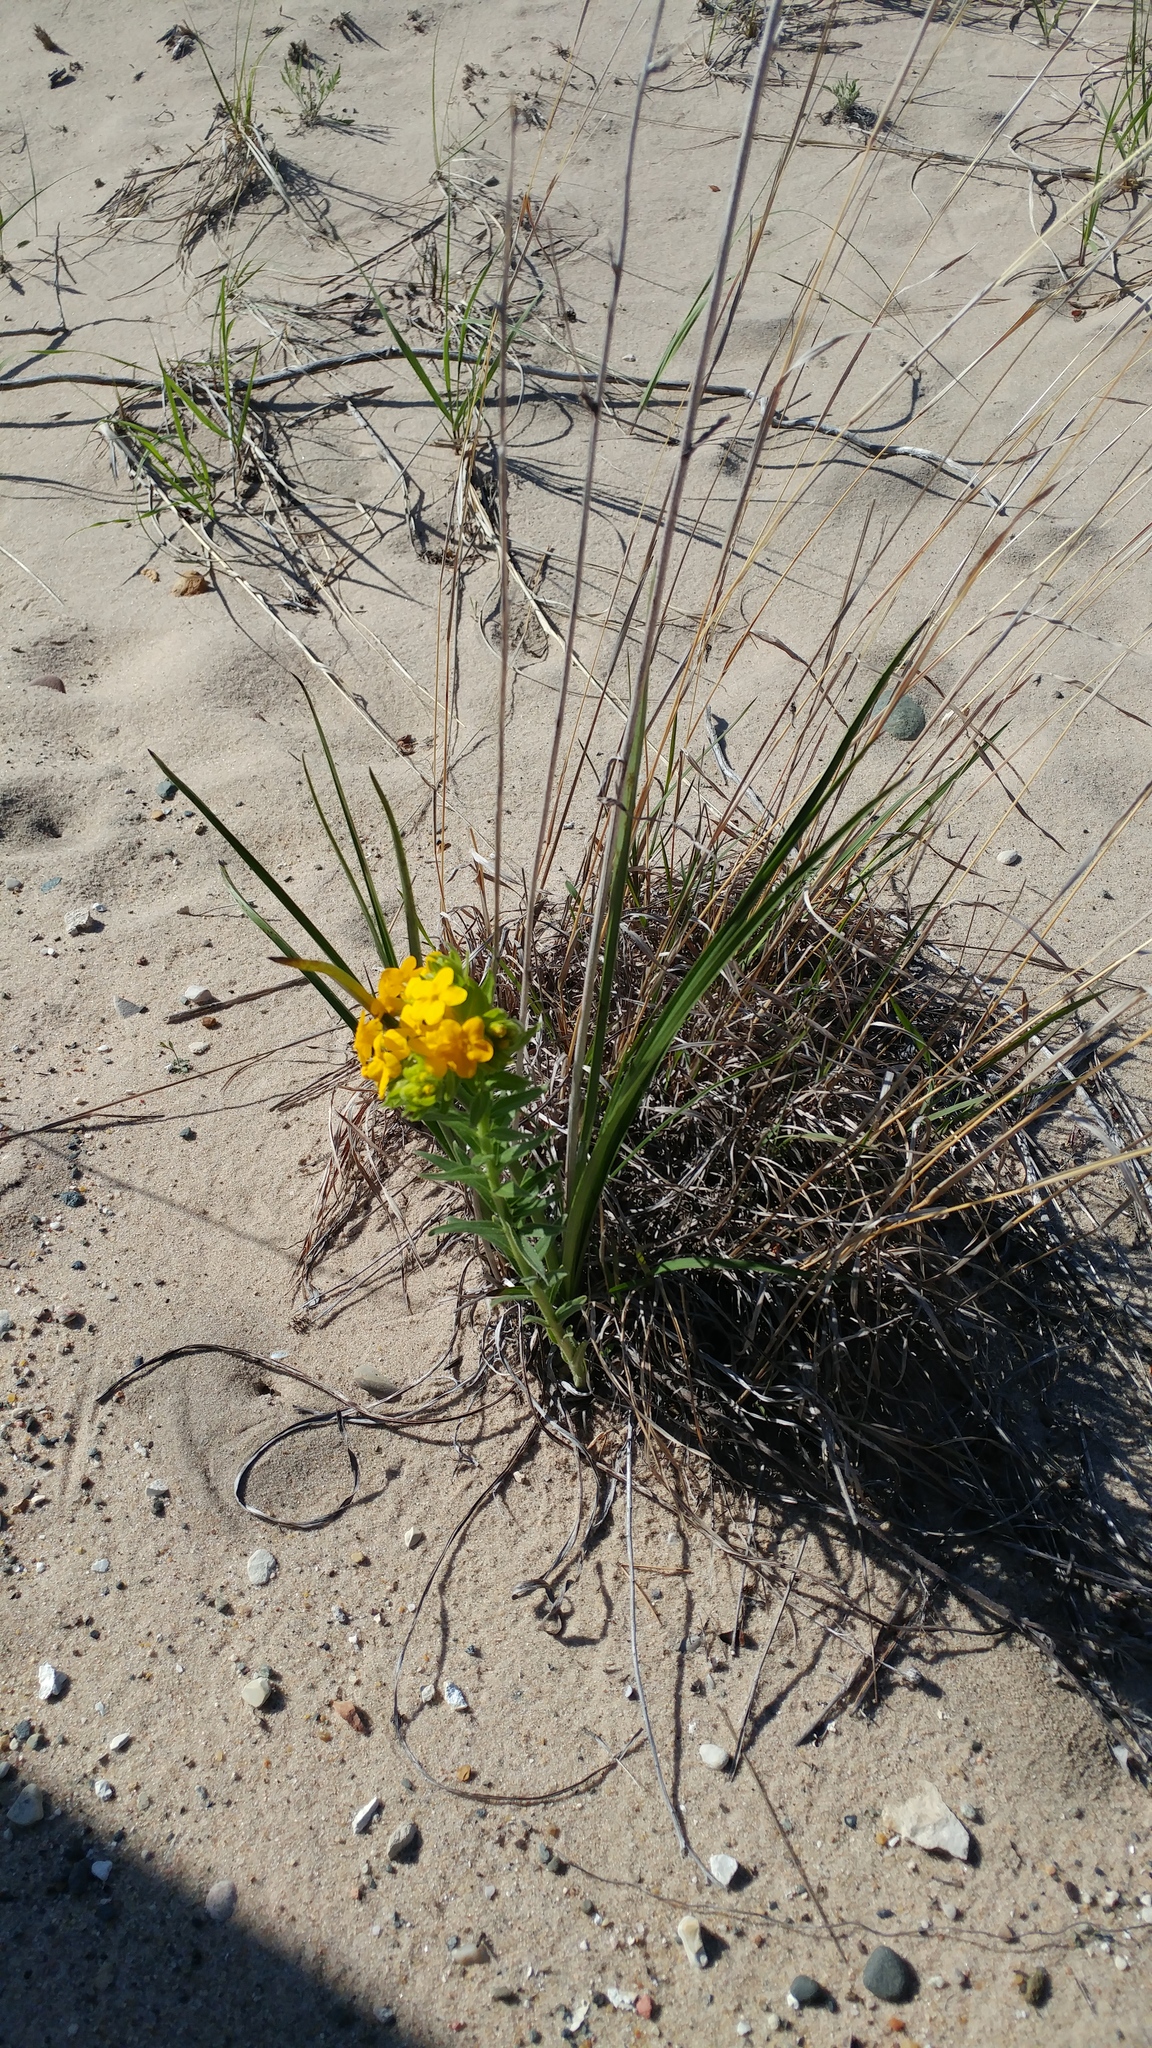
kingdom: Plantae
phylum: Tracheophyta
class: Magnoliopsida
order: Boraginales
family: Boraginaceae
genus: Lithospermum
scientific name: Lithospermum caroliniense
